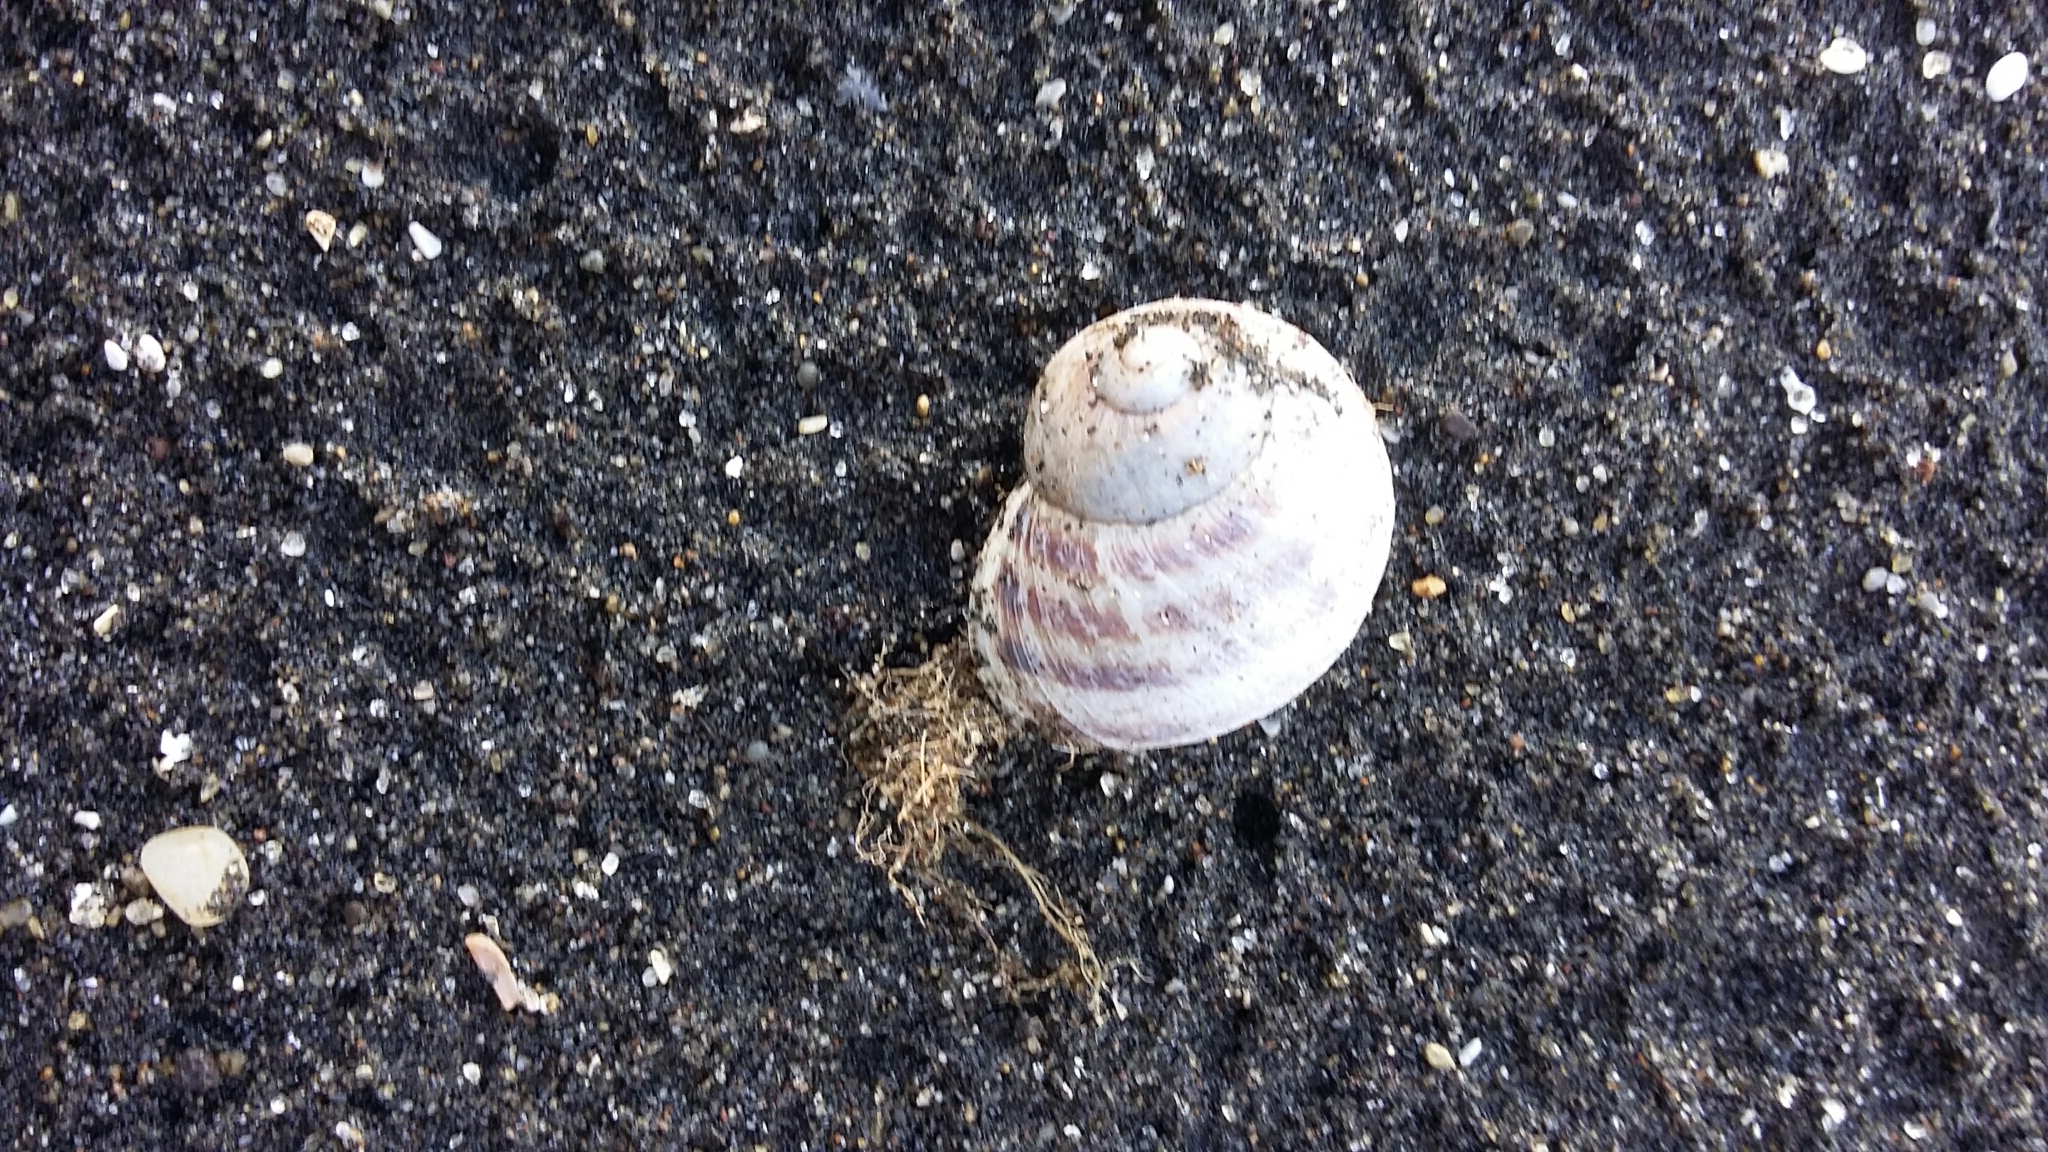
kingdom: Animalia
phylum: Mollusca
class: Gastropoda
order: Stylommatophora
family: Helicidae
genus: Cornu
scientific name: Cornu aspersum
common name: Brown garden snail
